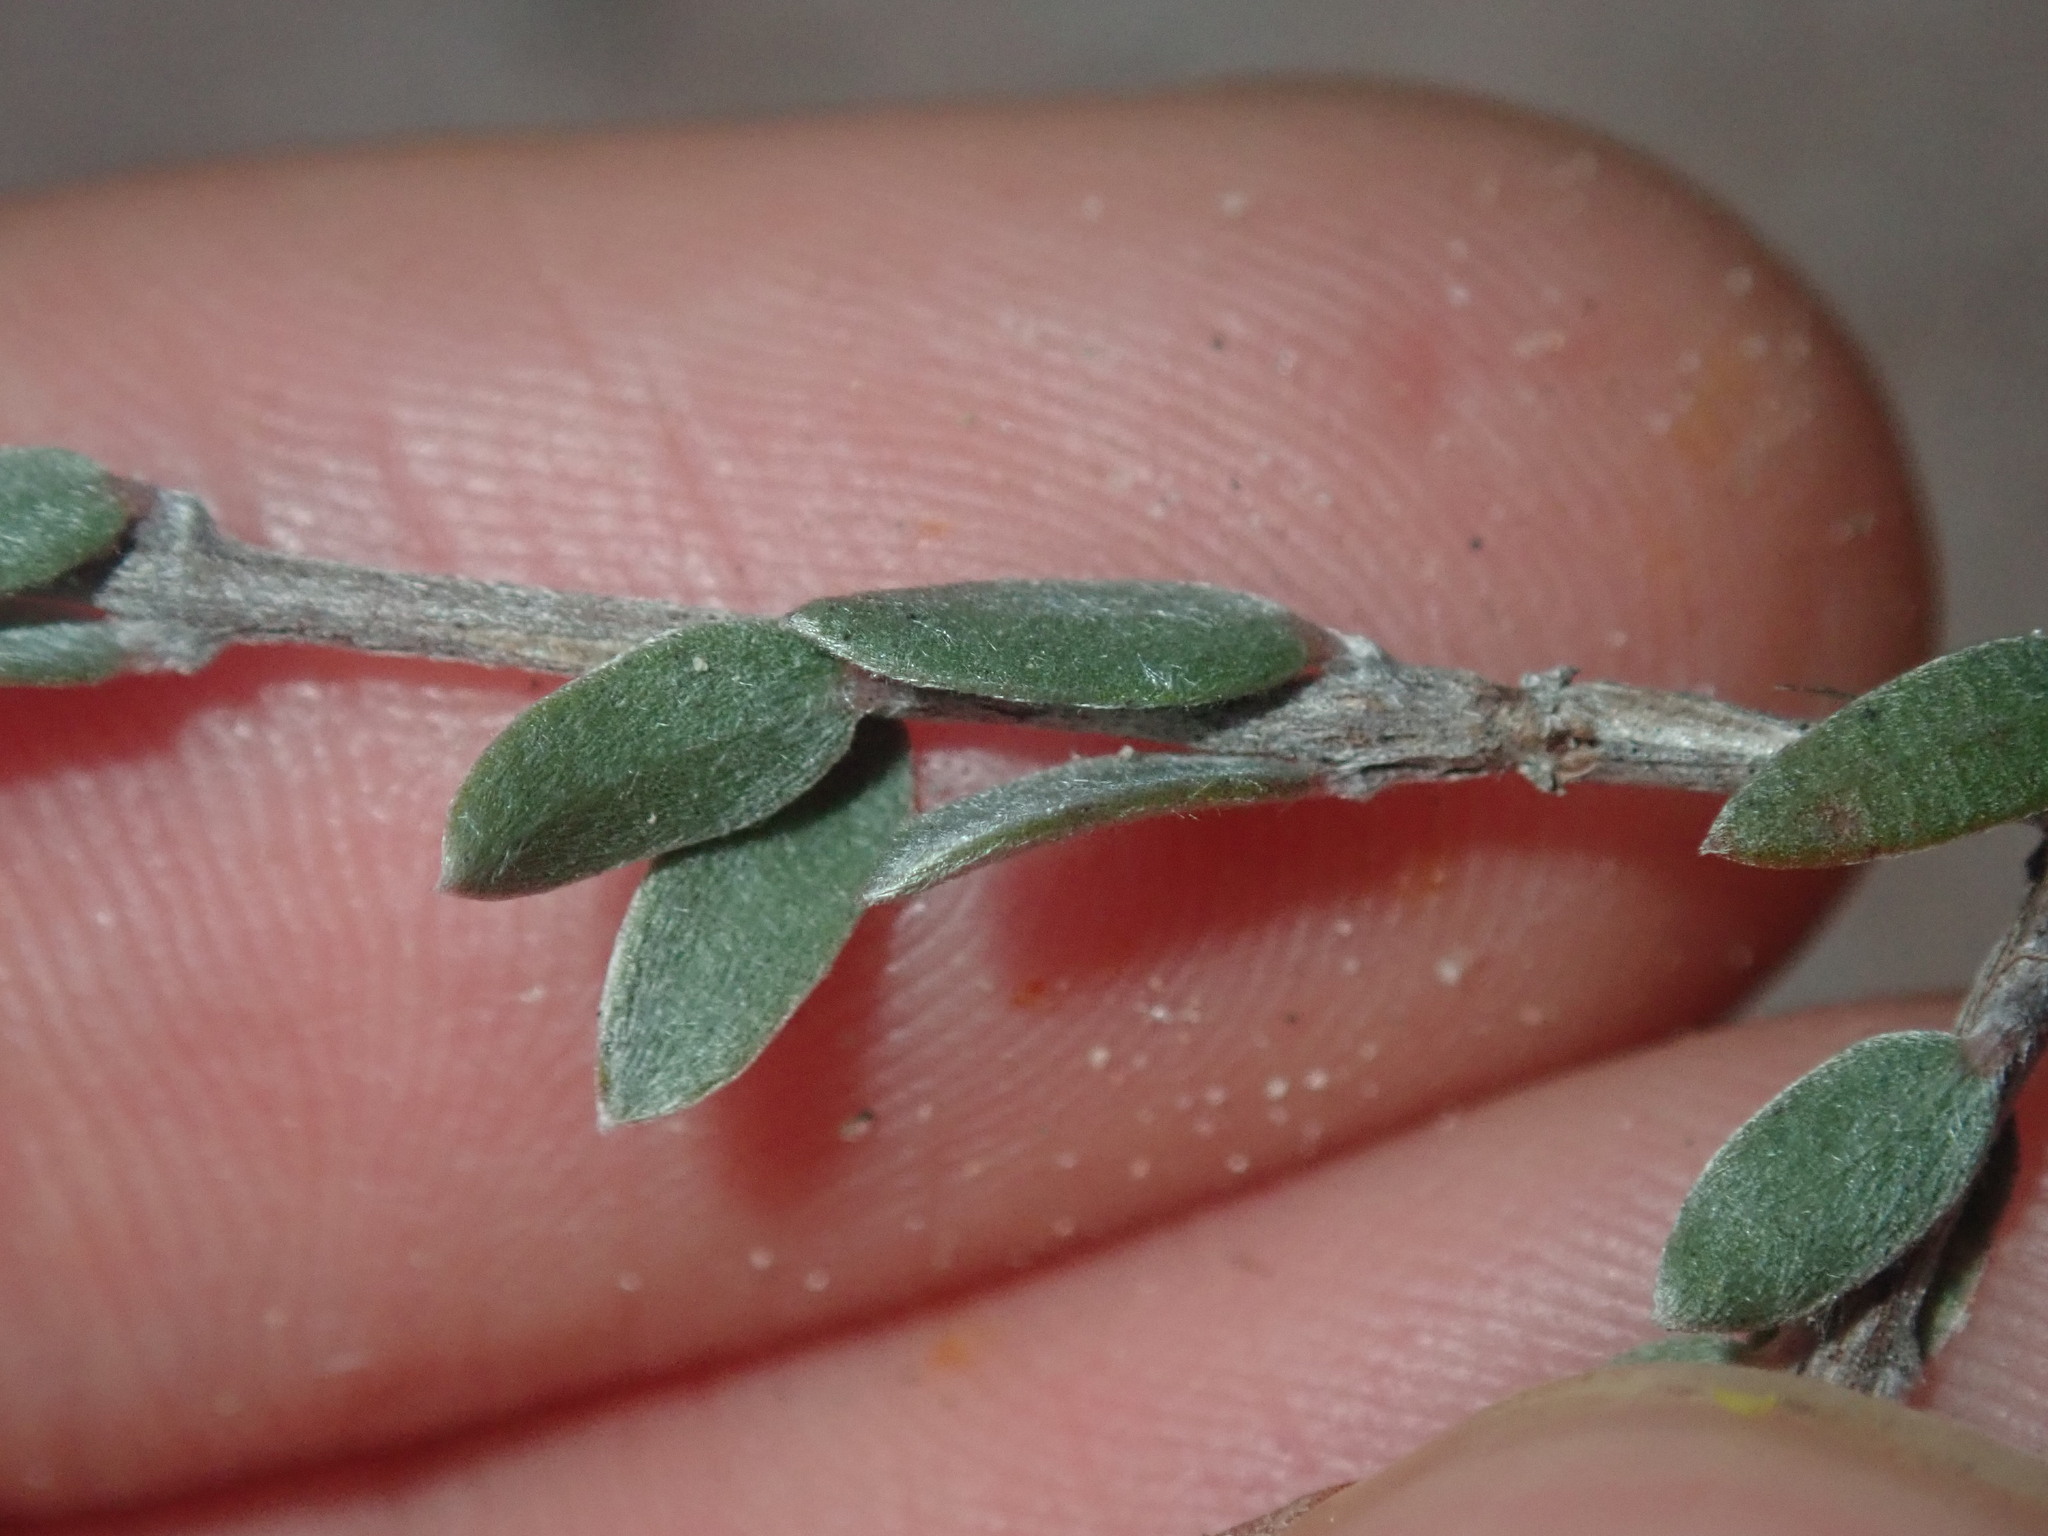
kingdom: Plantae
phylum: Tracheophyta
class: Magnoliopsida
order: Myrtales
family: Myrtaceae
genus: Melaleuca
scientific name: Melaleuca crispii
